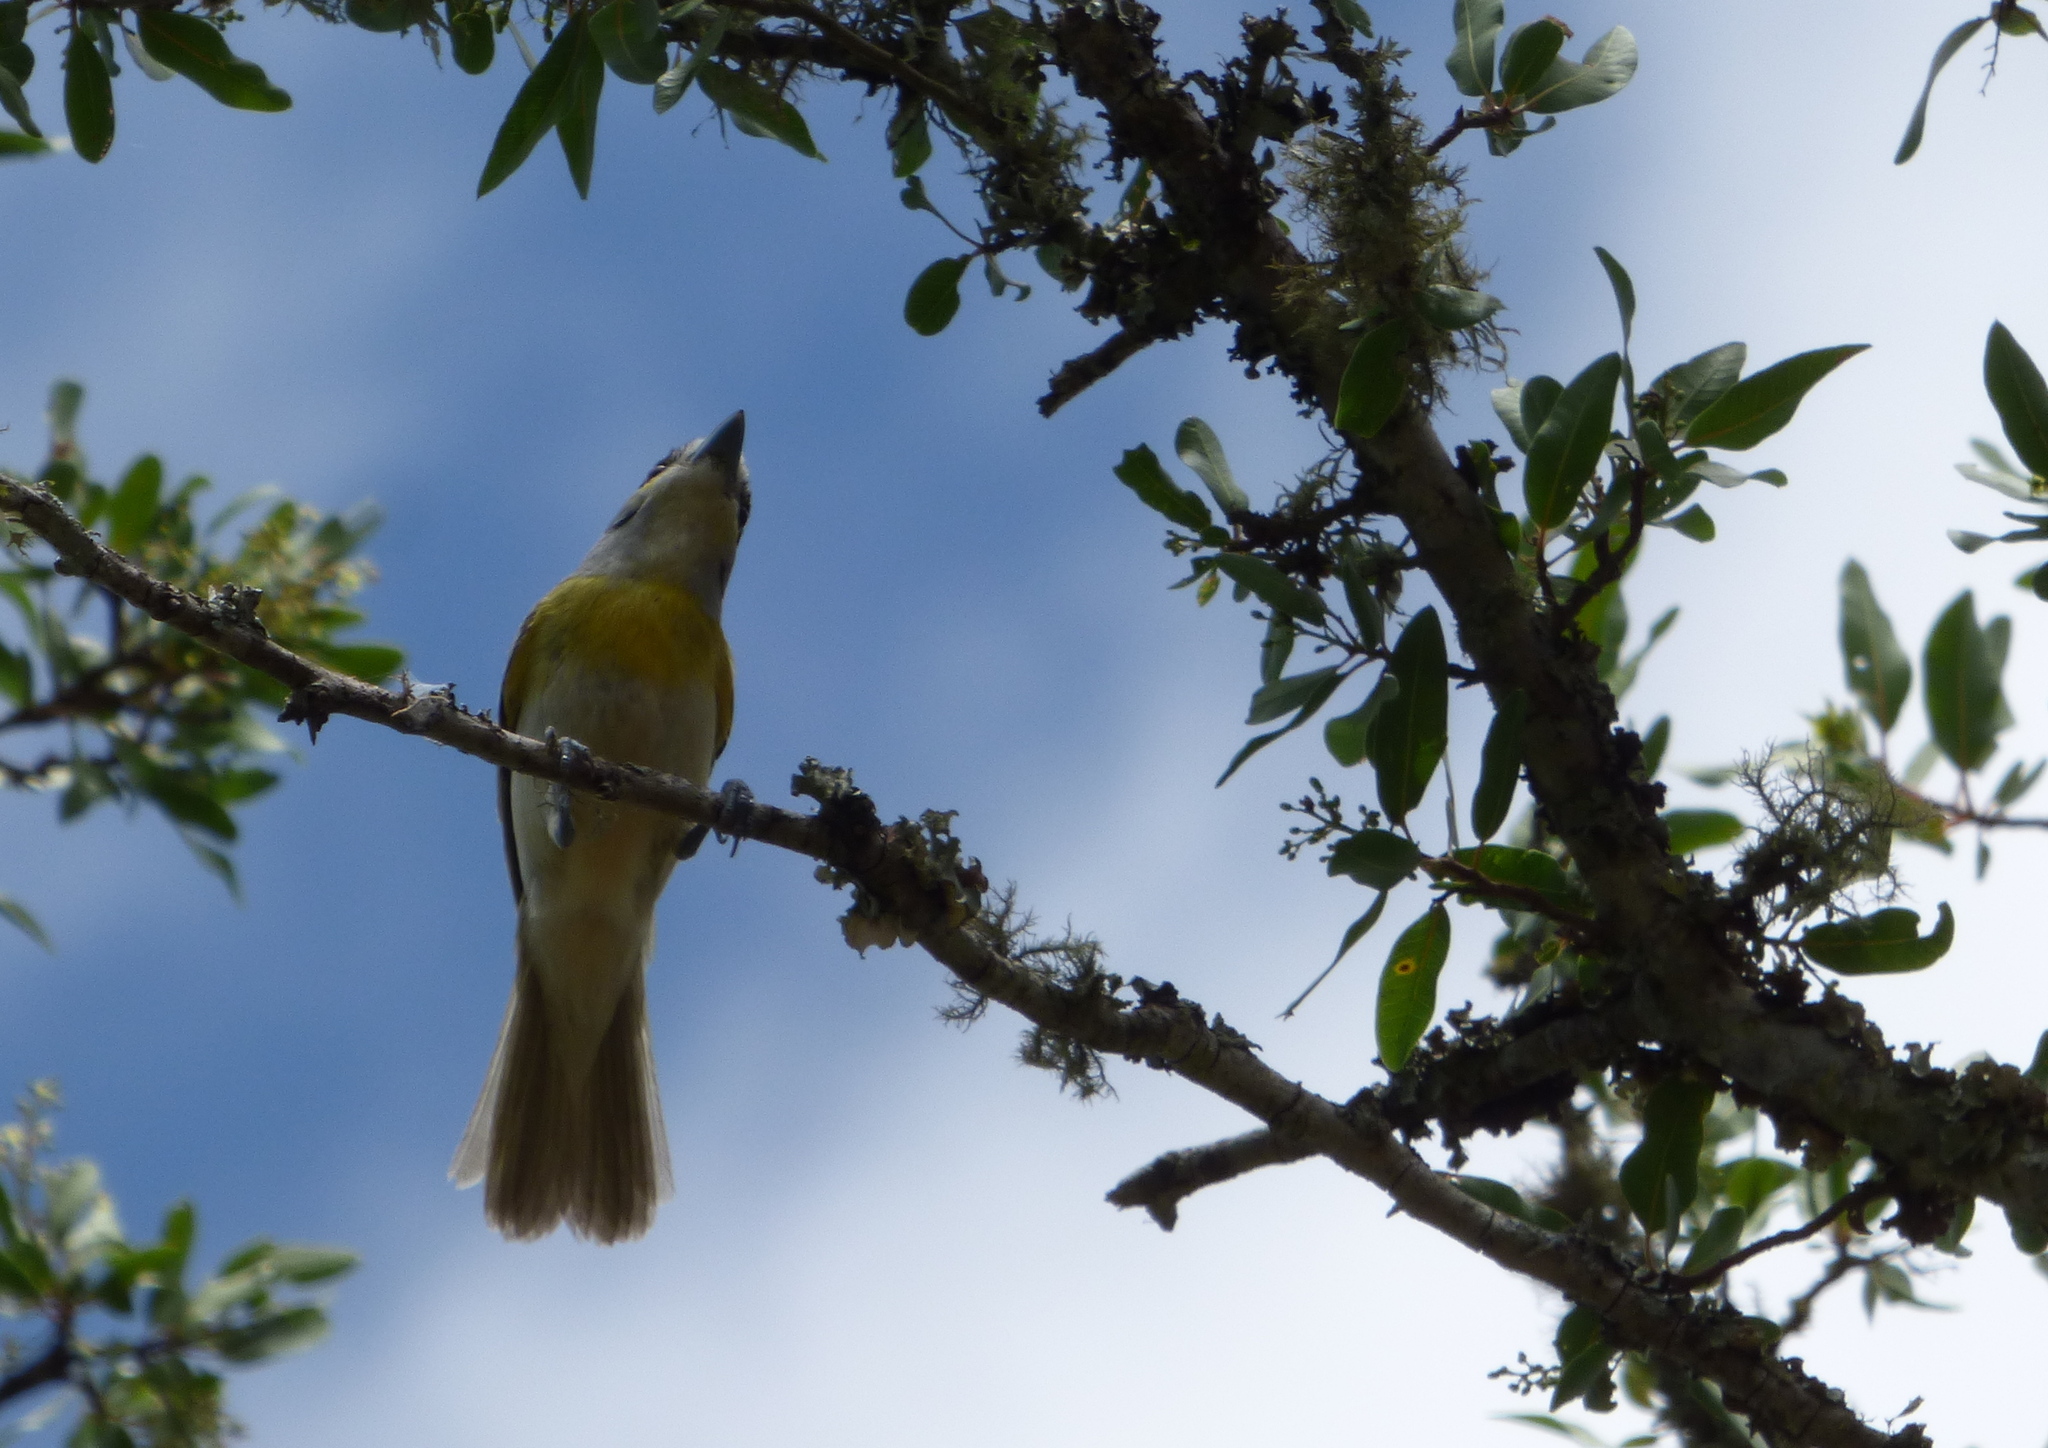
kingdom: Animalia
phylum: Chordata
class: Aves
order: Passeriformes
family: Cotingidae
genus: Pachyramphus
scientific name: Pachyramphus viridis
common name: Green-backed becard
